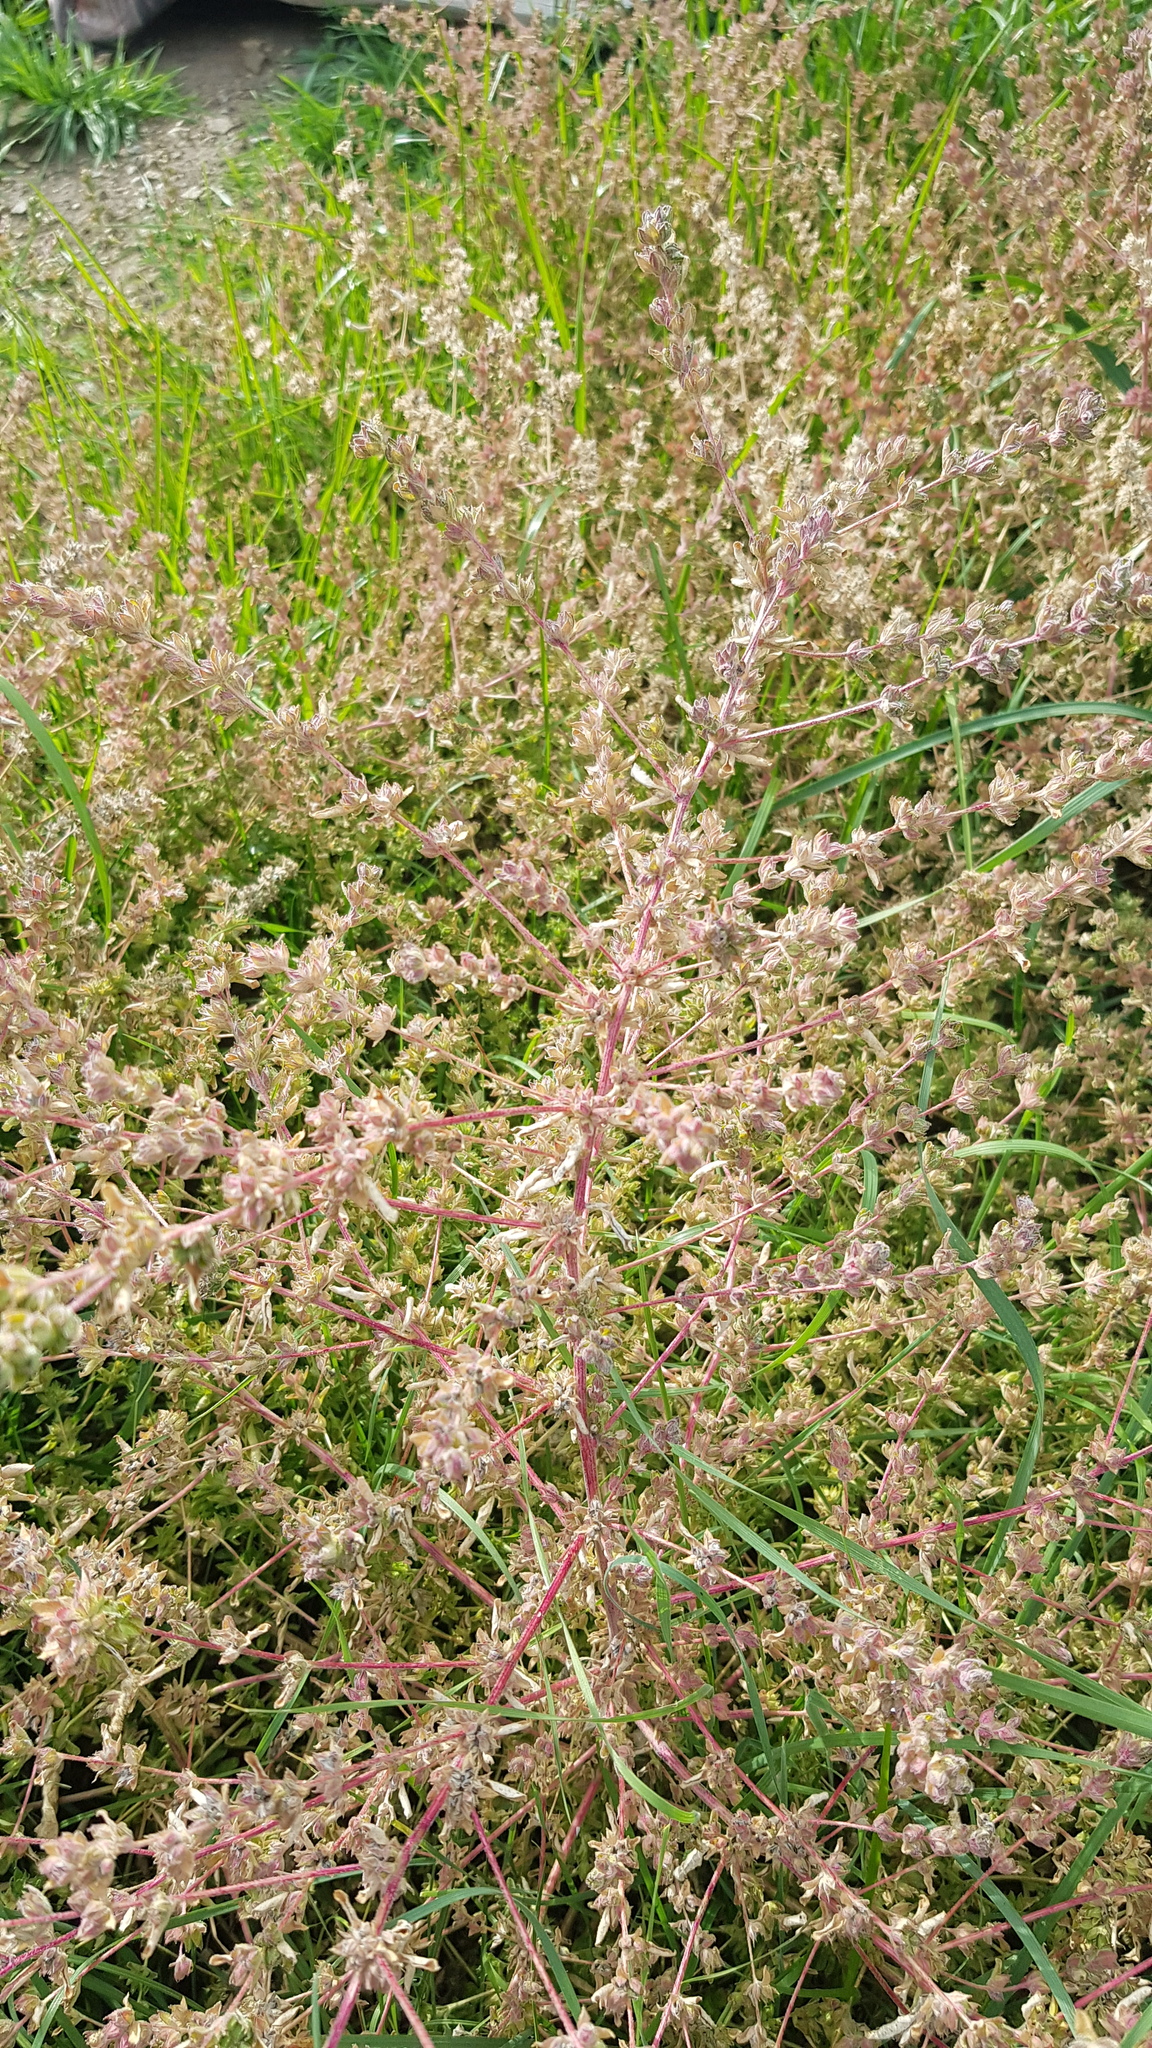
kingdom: Plantae
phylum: Tracheophyta
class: Magnoliopsida
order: Caryophyllales
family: Amaranthaceae
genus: Axyris
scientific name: Axyris amaranthoides
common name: Russian pigweed
